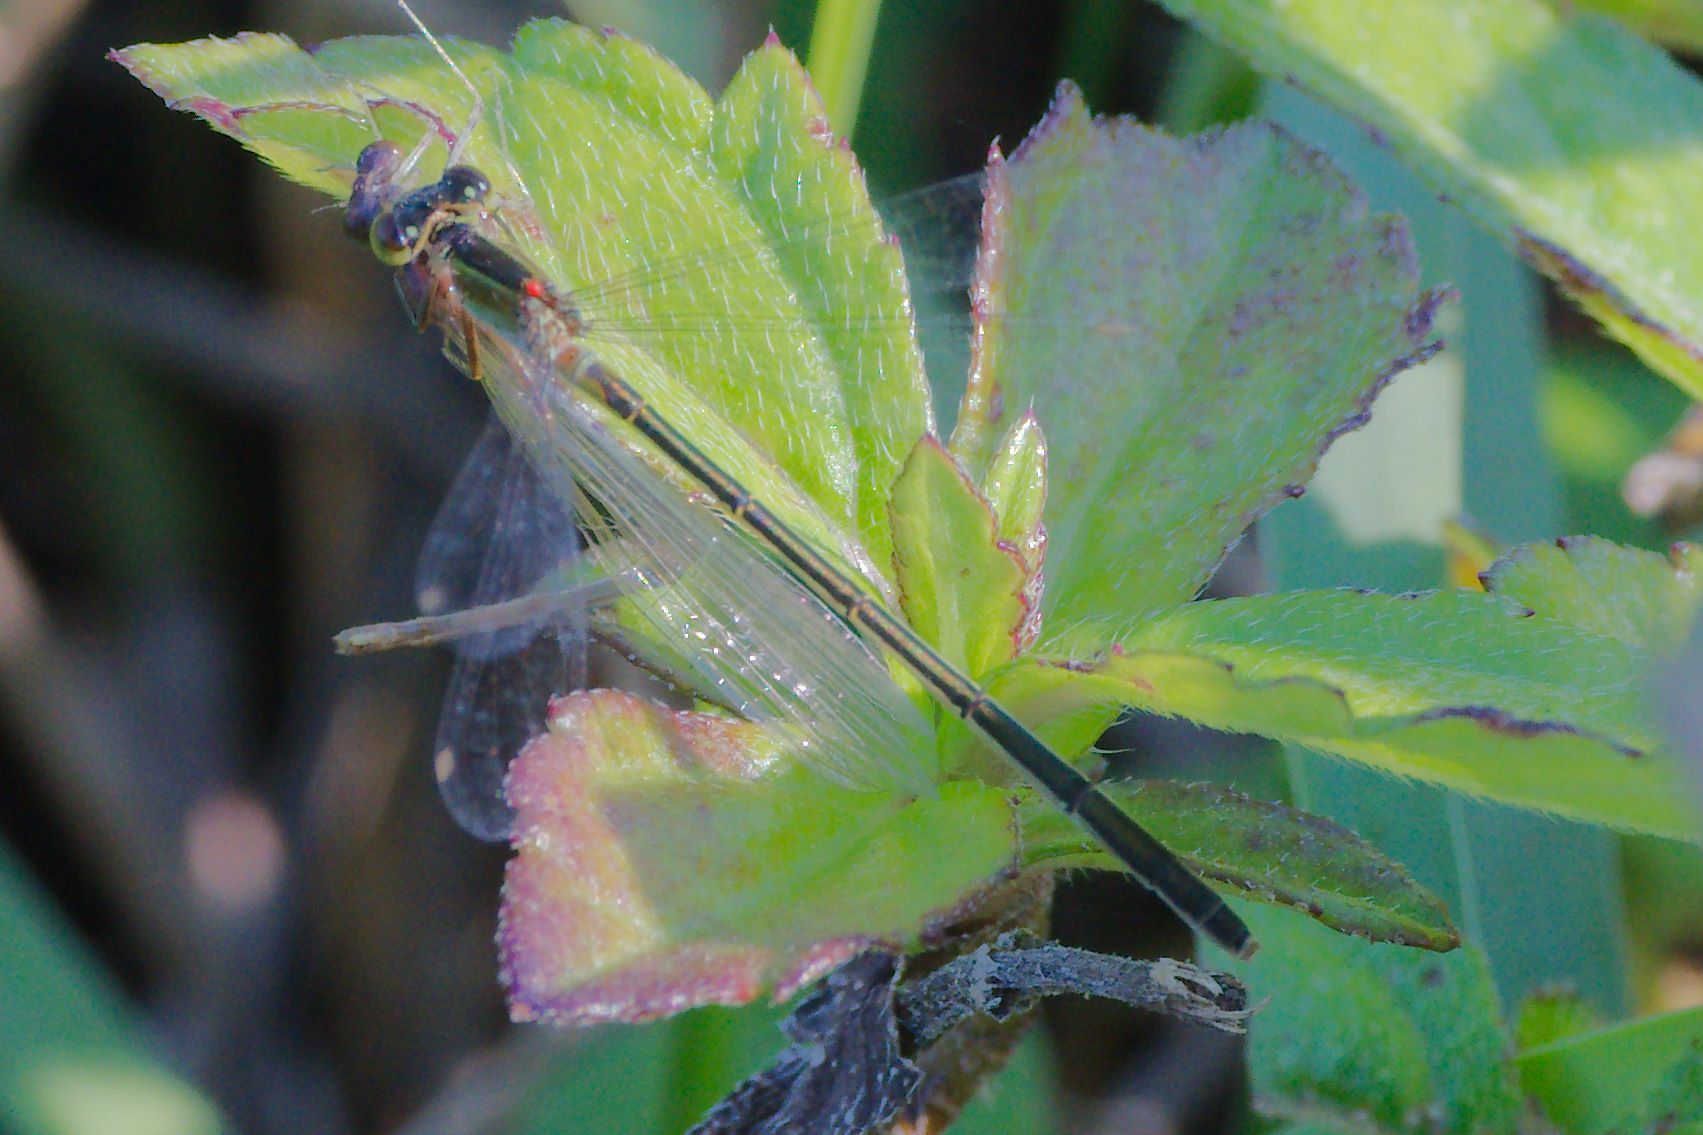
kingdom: Animalia
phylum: Arthropoda
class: Insecta
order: Odonata
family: Coenagrionidae
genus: Ischnura
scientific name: Ischnura ramburii
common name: Rambur's forktail
